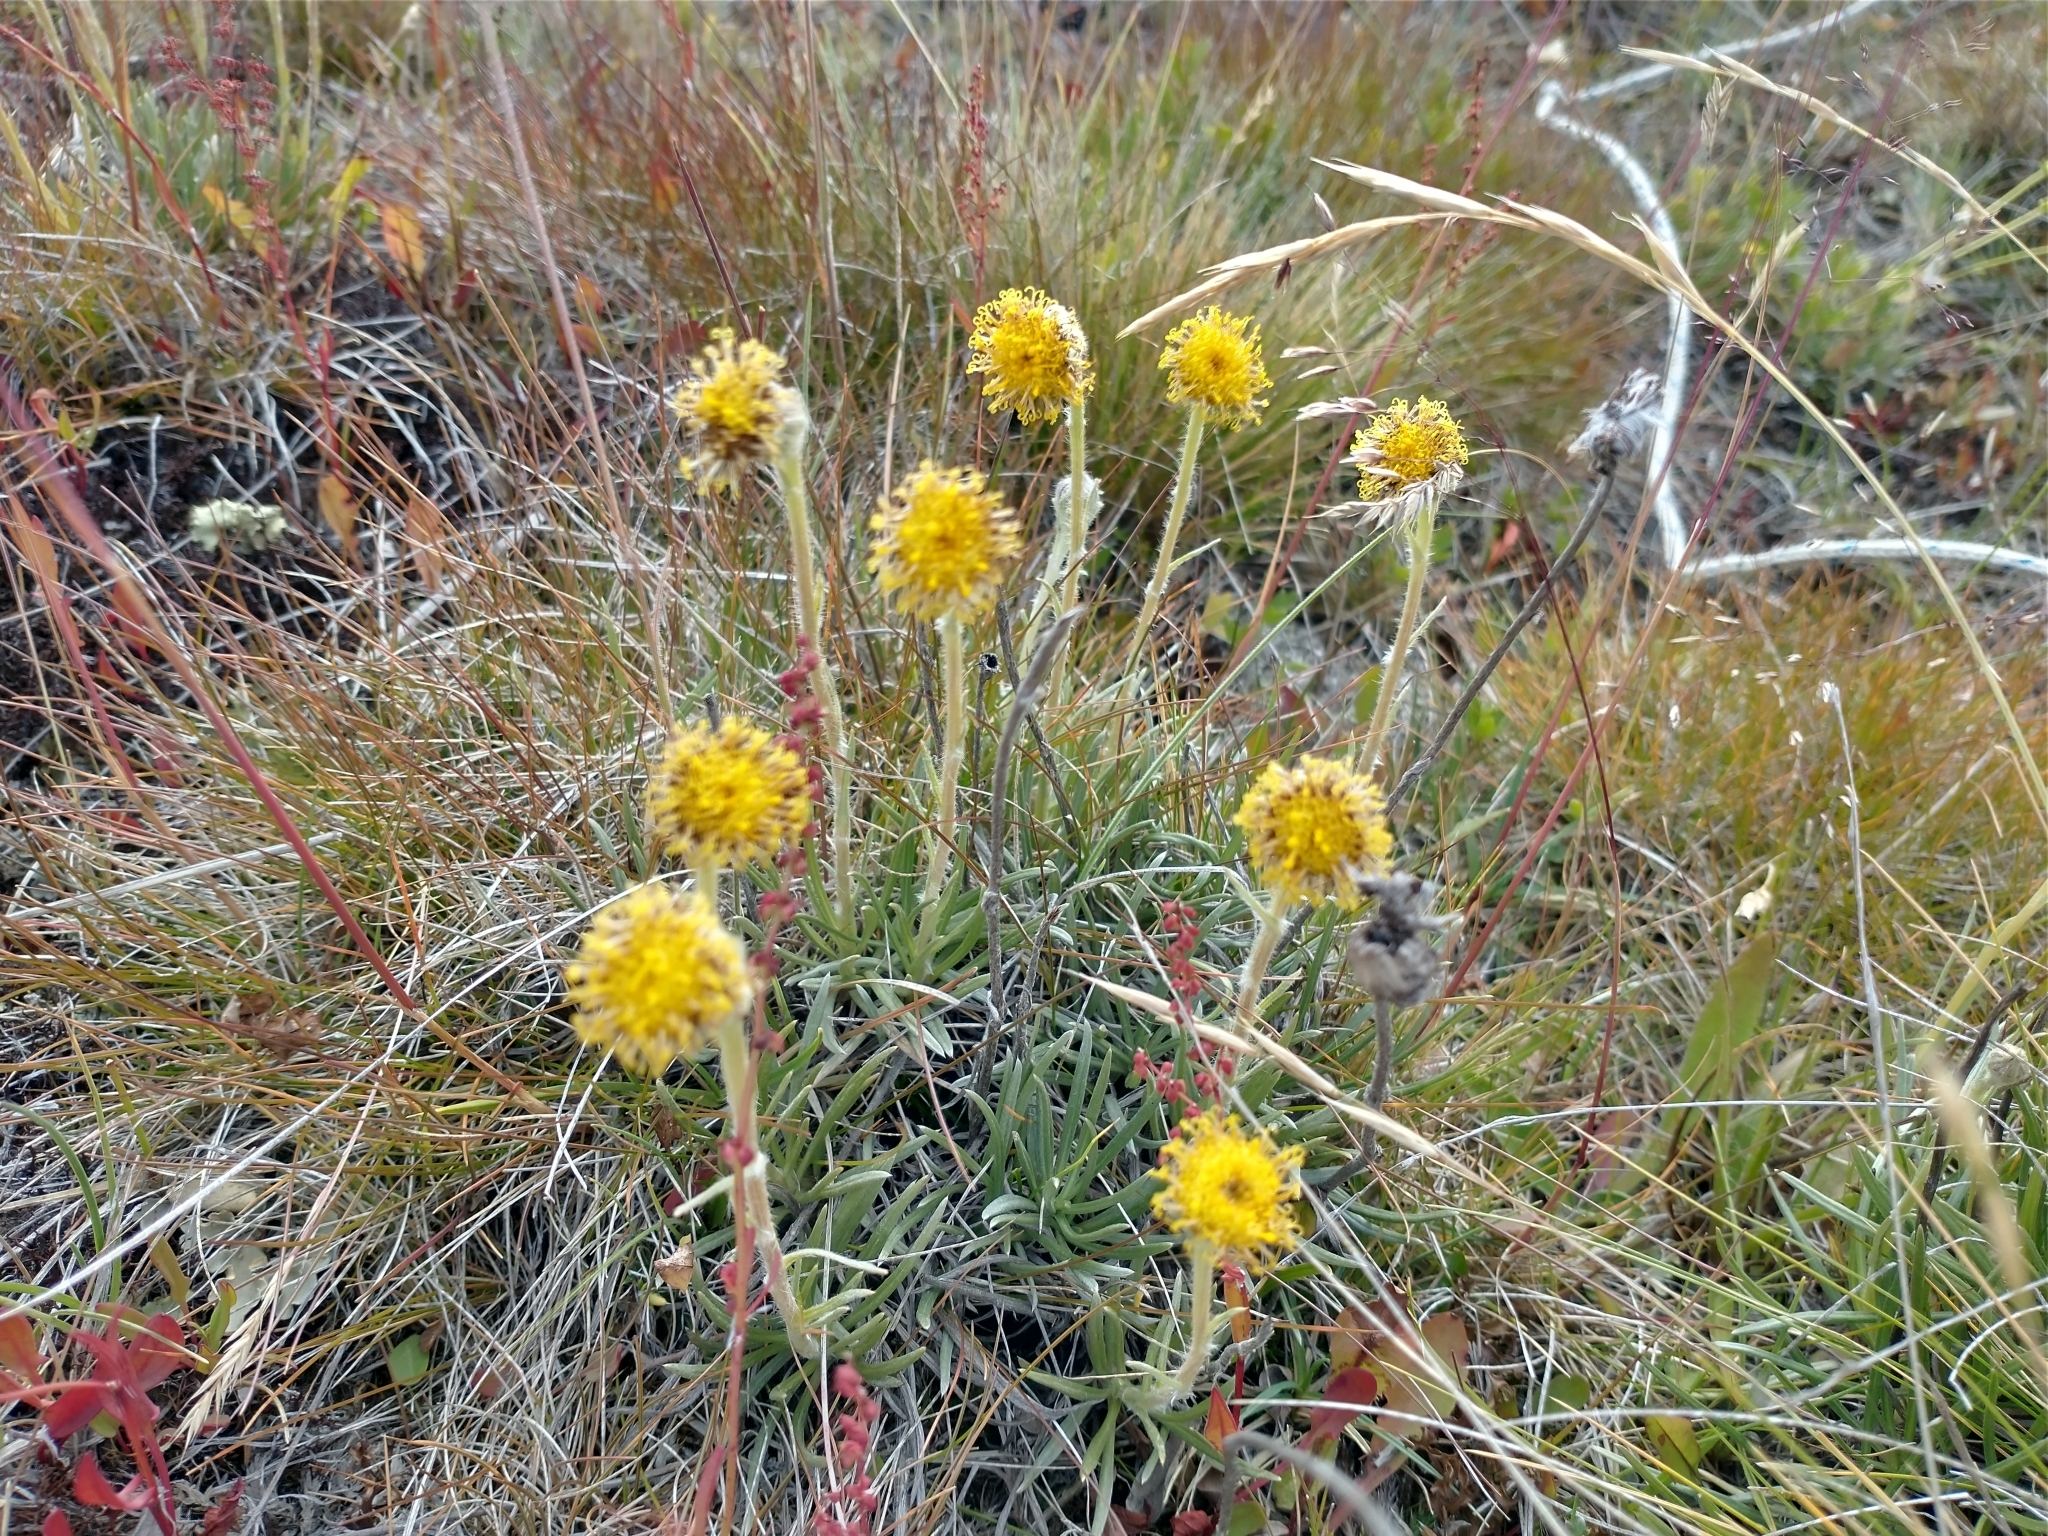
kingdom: Plantae
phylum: Tracheophyta
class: Magnoliopsida
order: Asterales
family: Asteraceae
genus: Senecio
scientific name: Senecio
